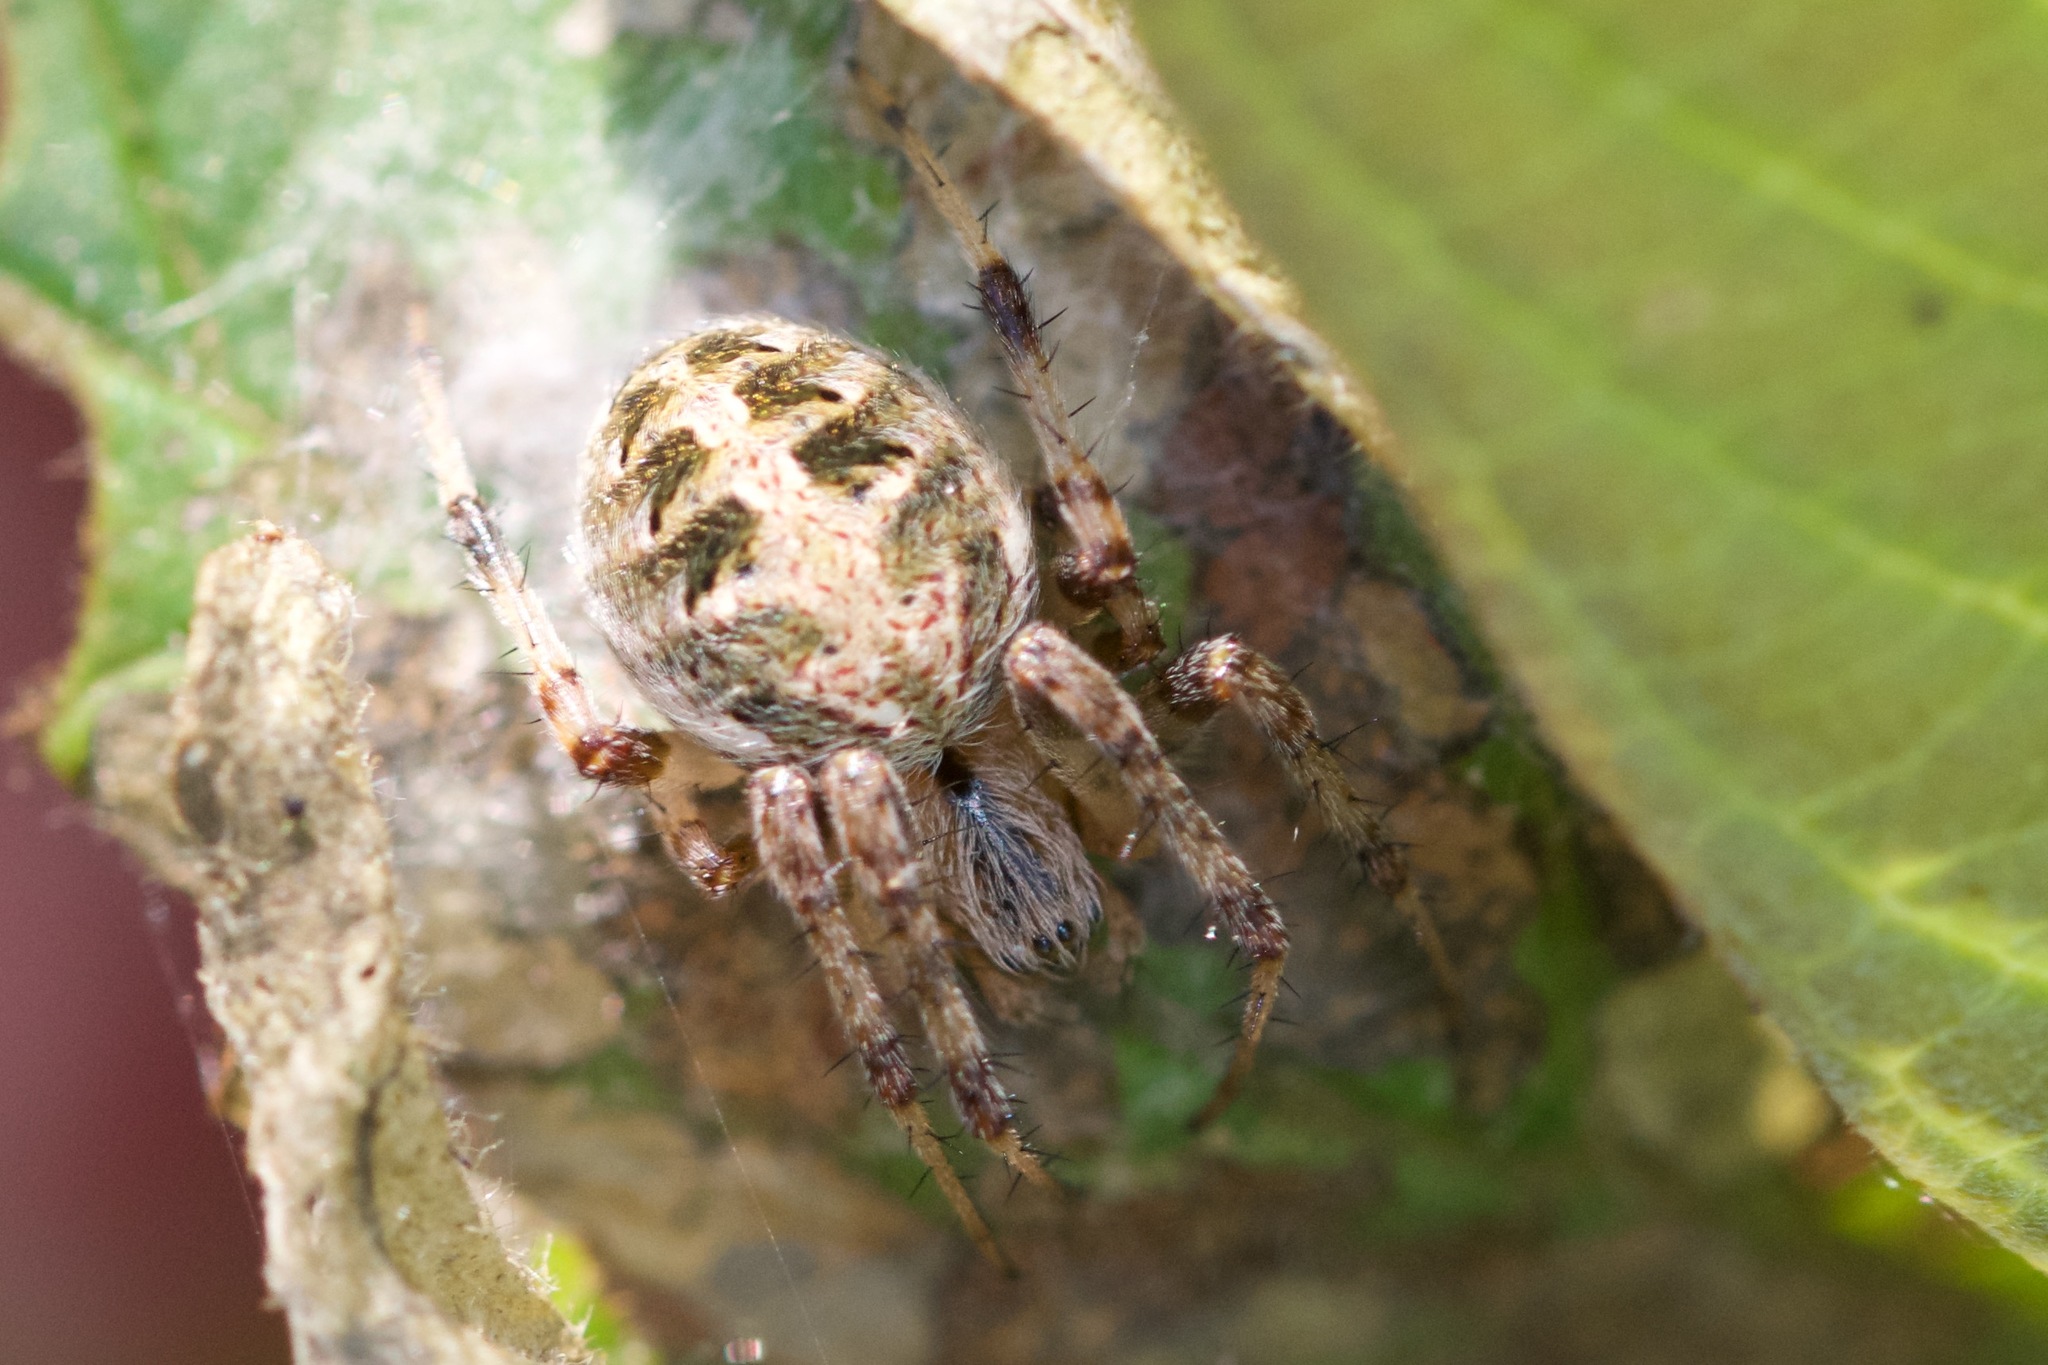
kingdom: Animalia
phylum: Arthropoda
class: Arachnida
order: Araneae
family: Araneidae
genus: Neoscona
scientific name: Neoscona arabesca
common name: Orb weavers
